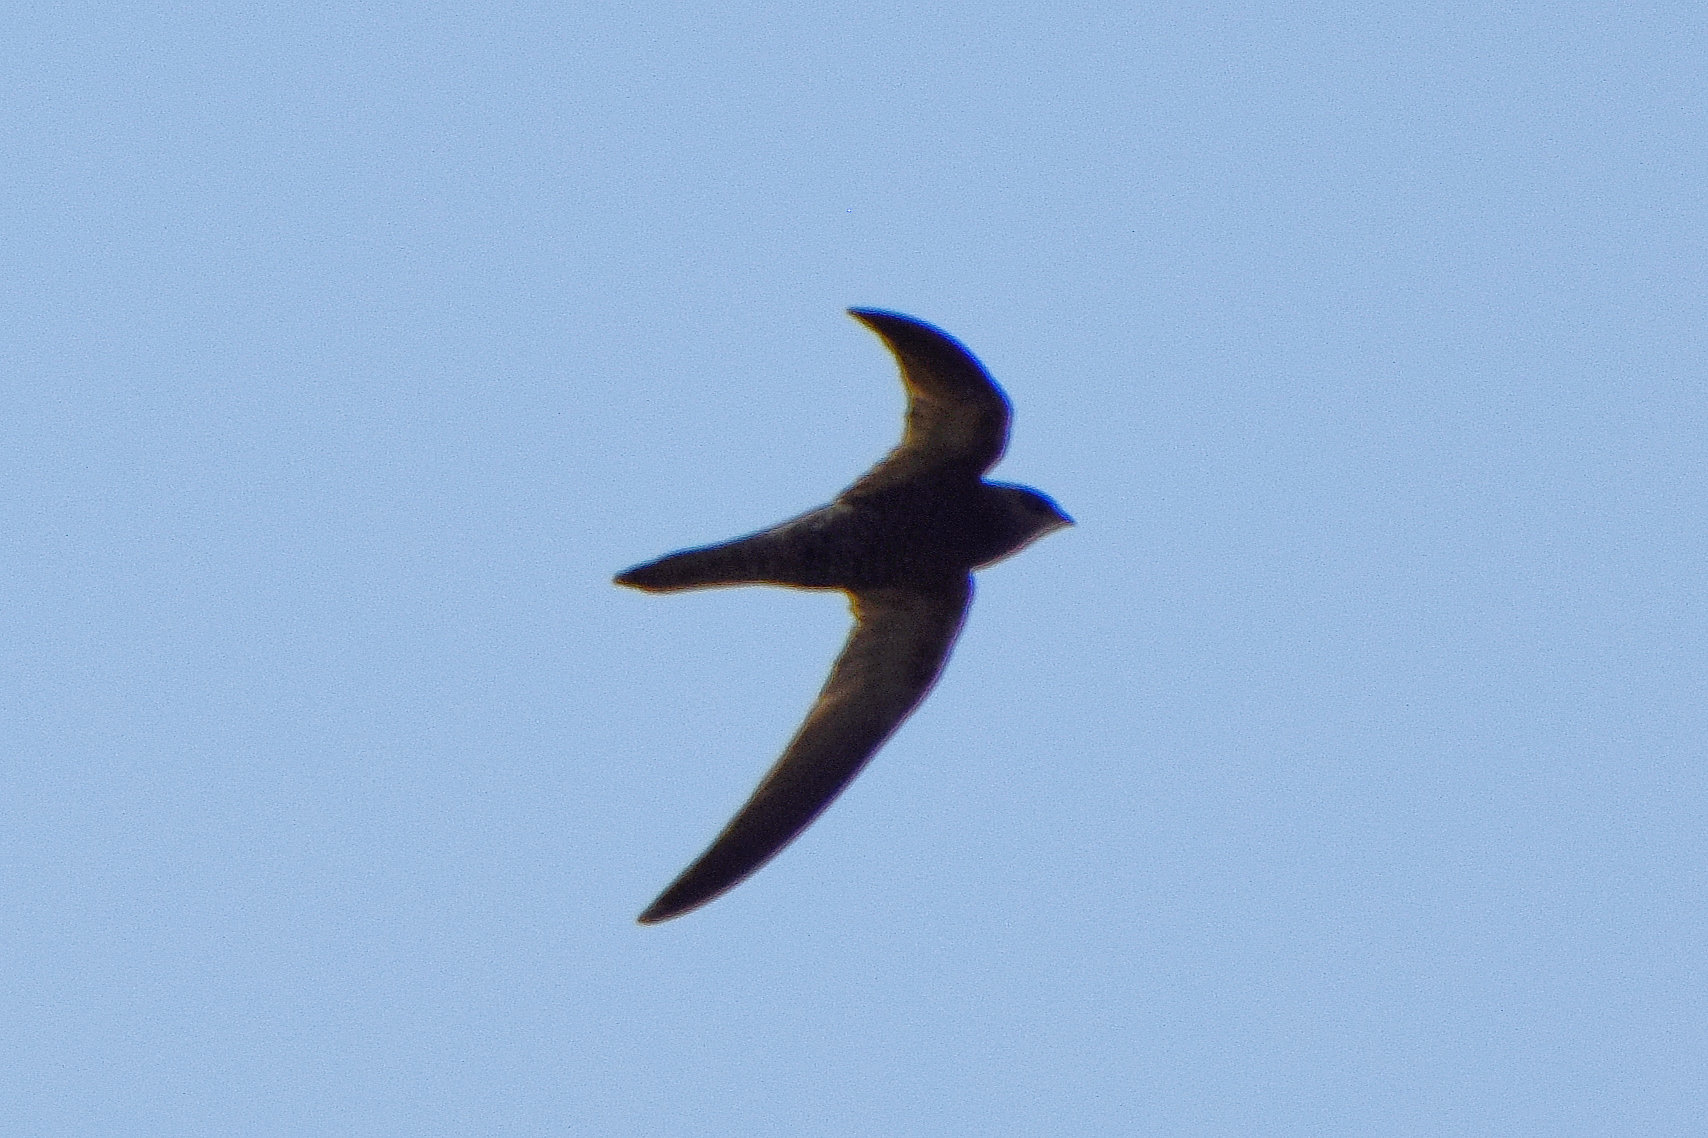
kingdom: Animalia
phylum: Chordata
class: Aves
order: Apodiformes
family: Apodidae
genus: Apus
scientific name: Apus apus
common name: Common swift
